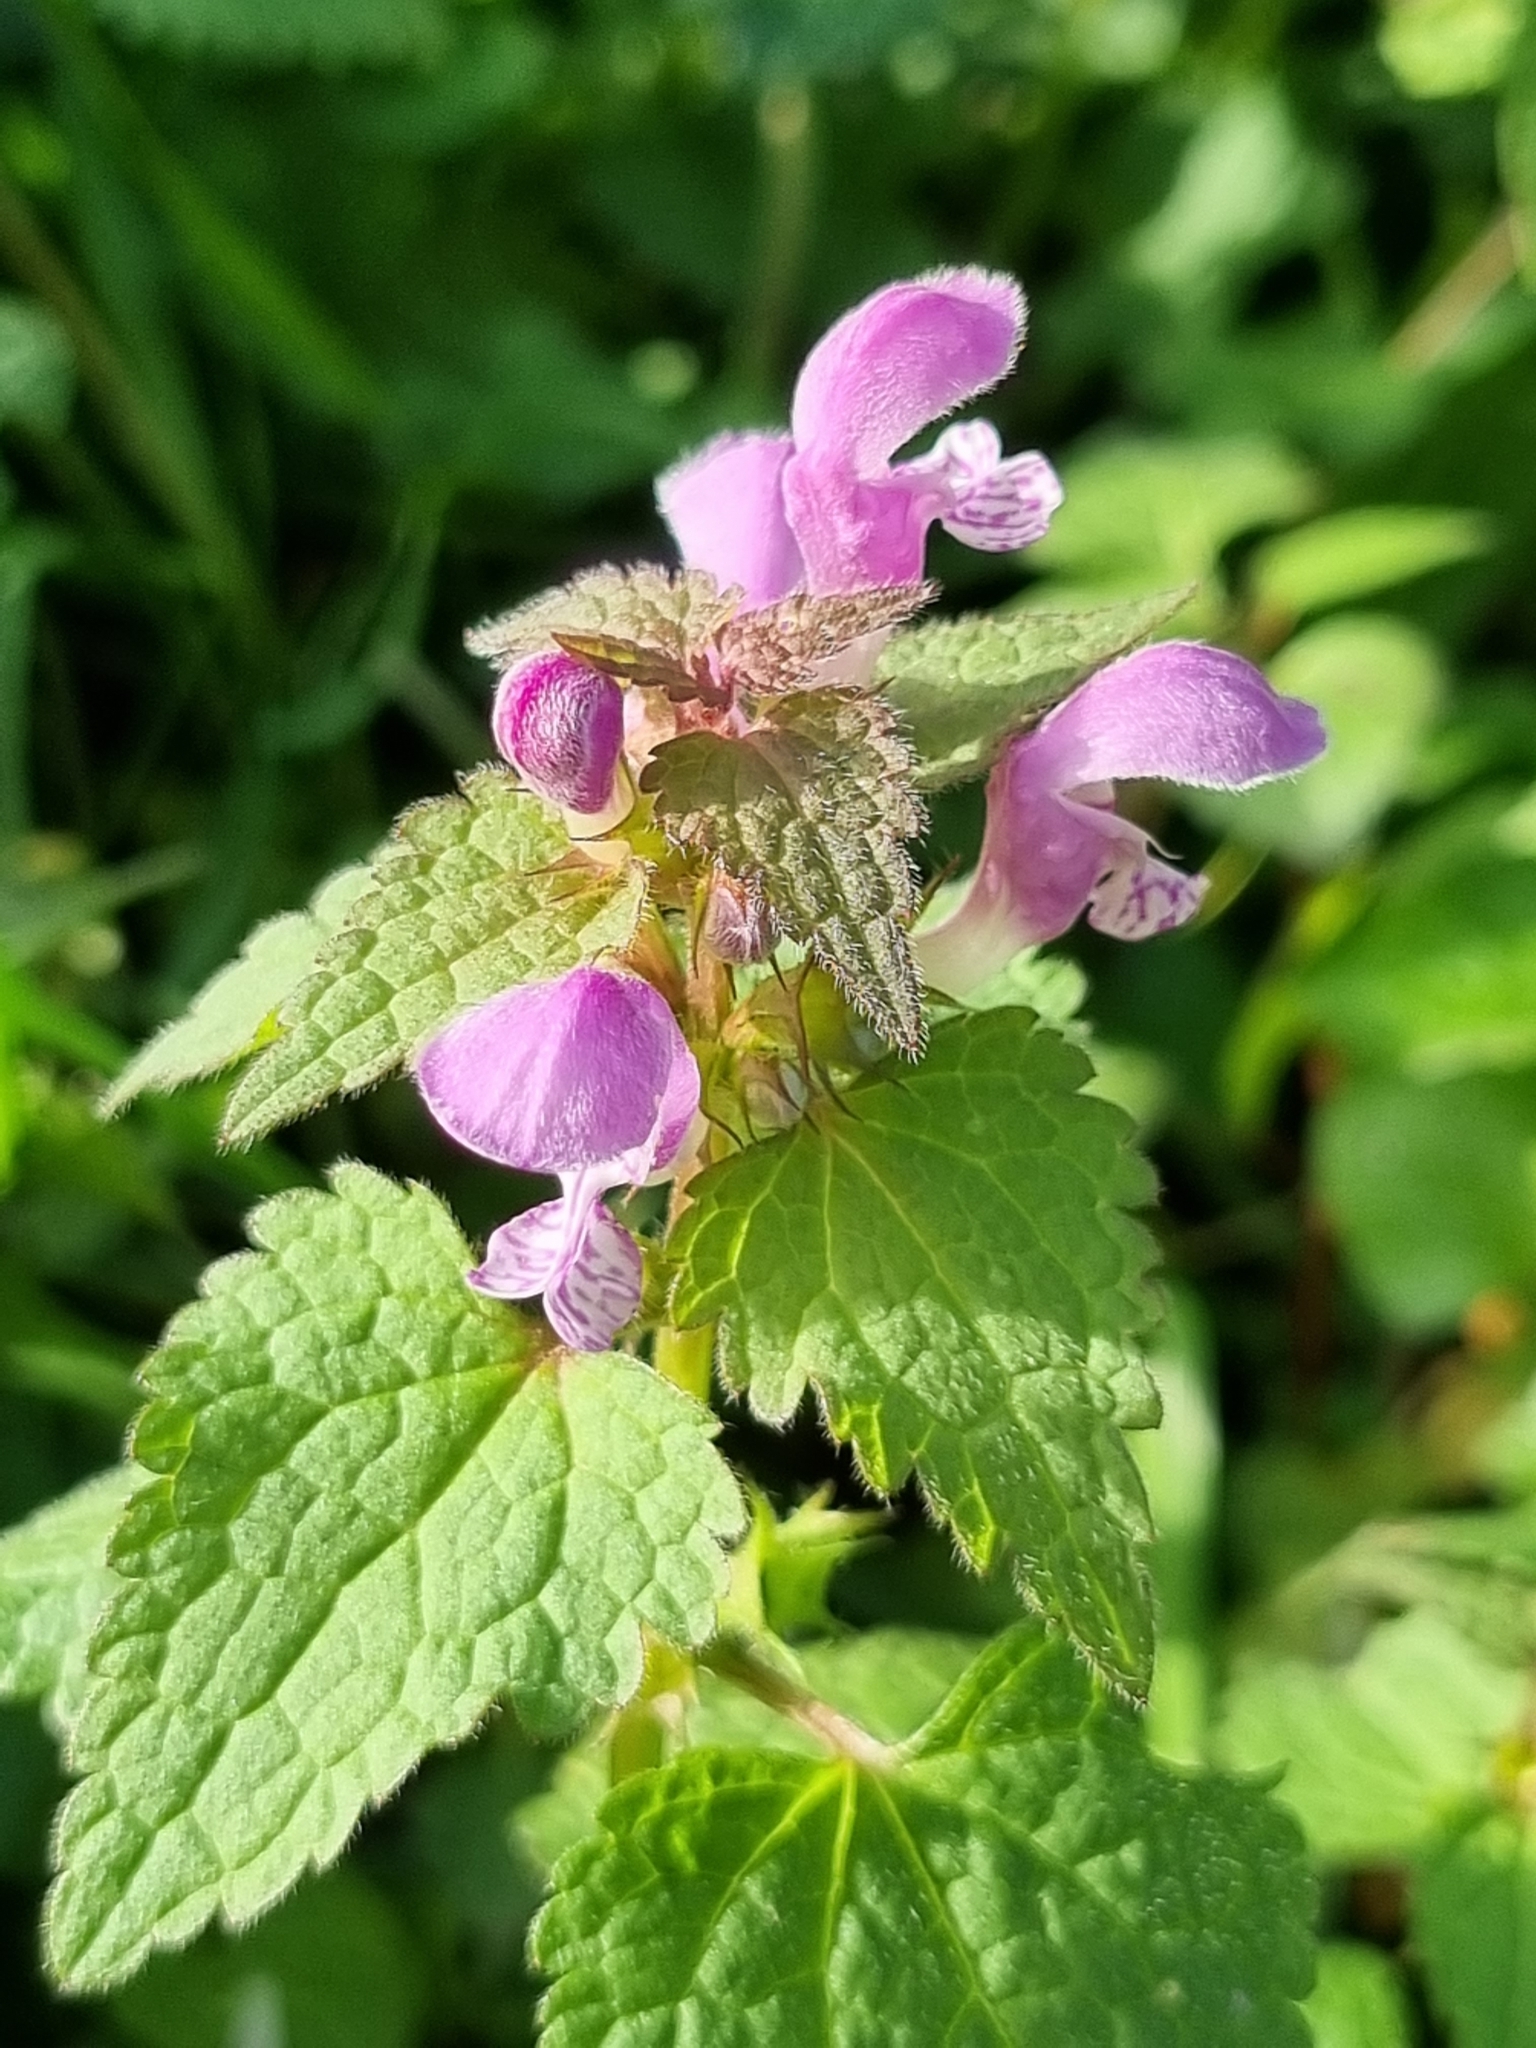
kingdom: Plantae
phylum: Tracheophyta
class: Magnoliopsida
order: Lamiales
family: Lamiaceae
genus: Lamium
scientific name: Lamium maculatum
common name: Spotted dead-nettle
